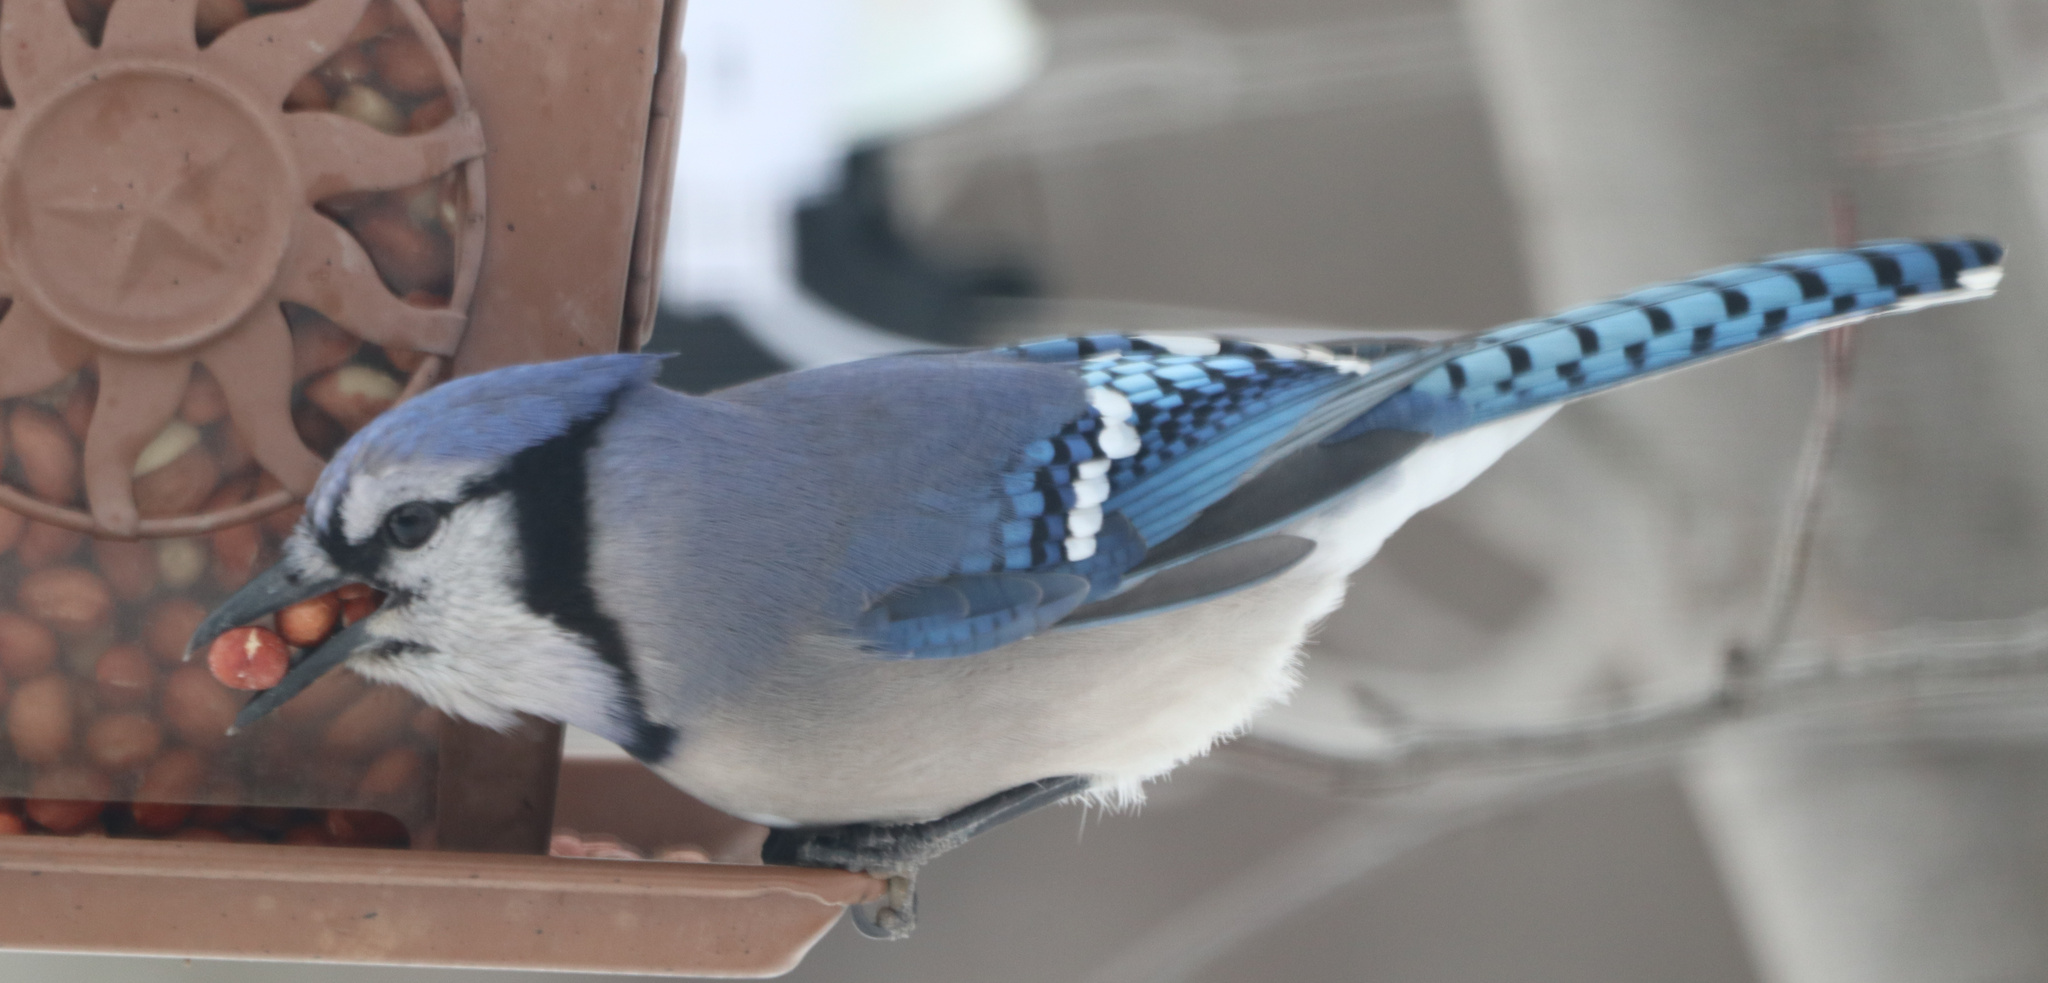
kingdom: Animalia
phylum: Chordata
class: Aves
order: Passeriformes
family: Corvidae
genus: Cyanocitta
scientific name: Cyanocitta cristata
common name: Blue jay
